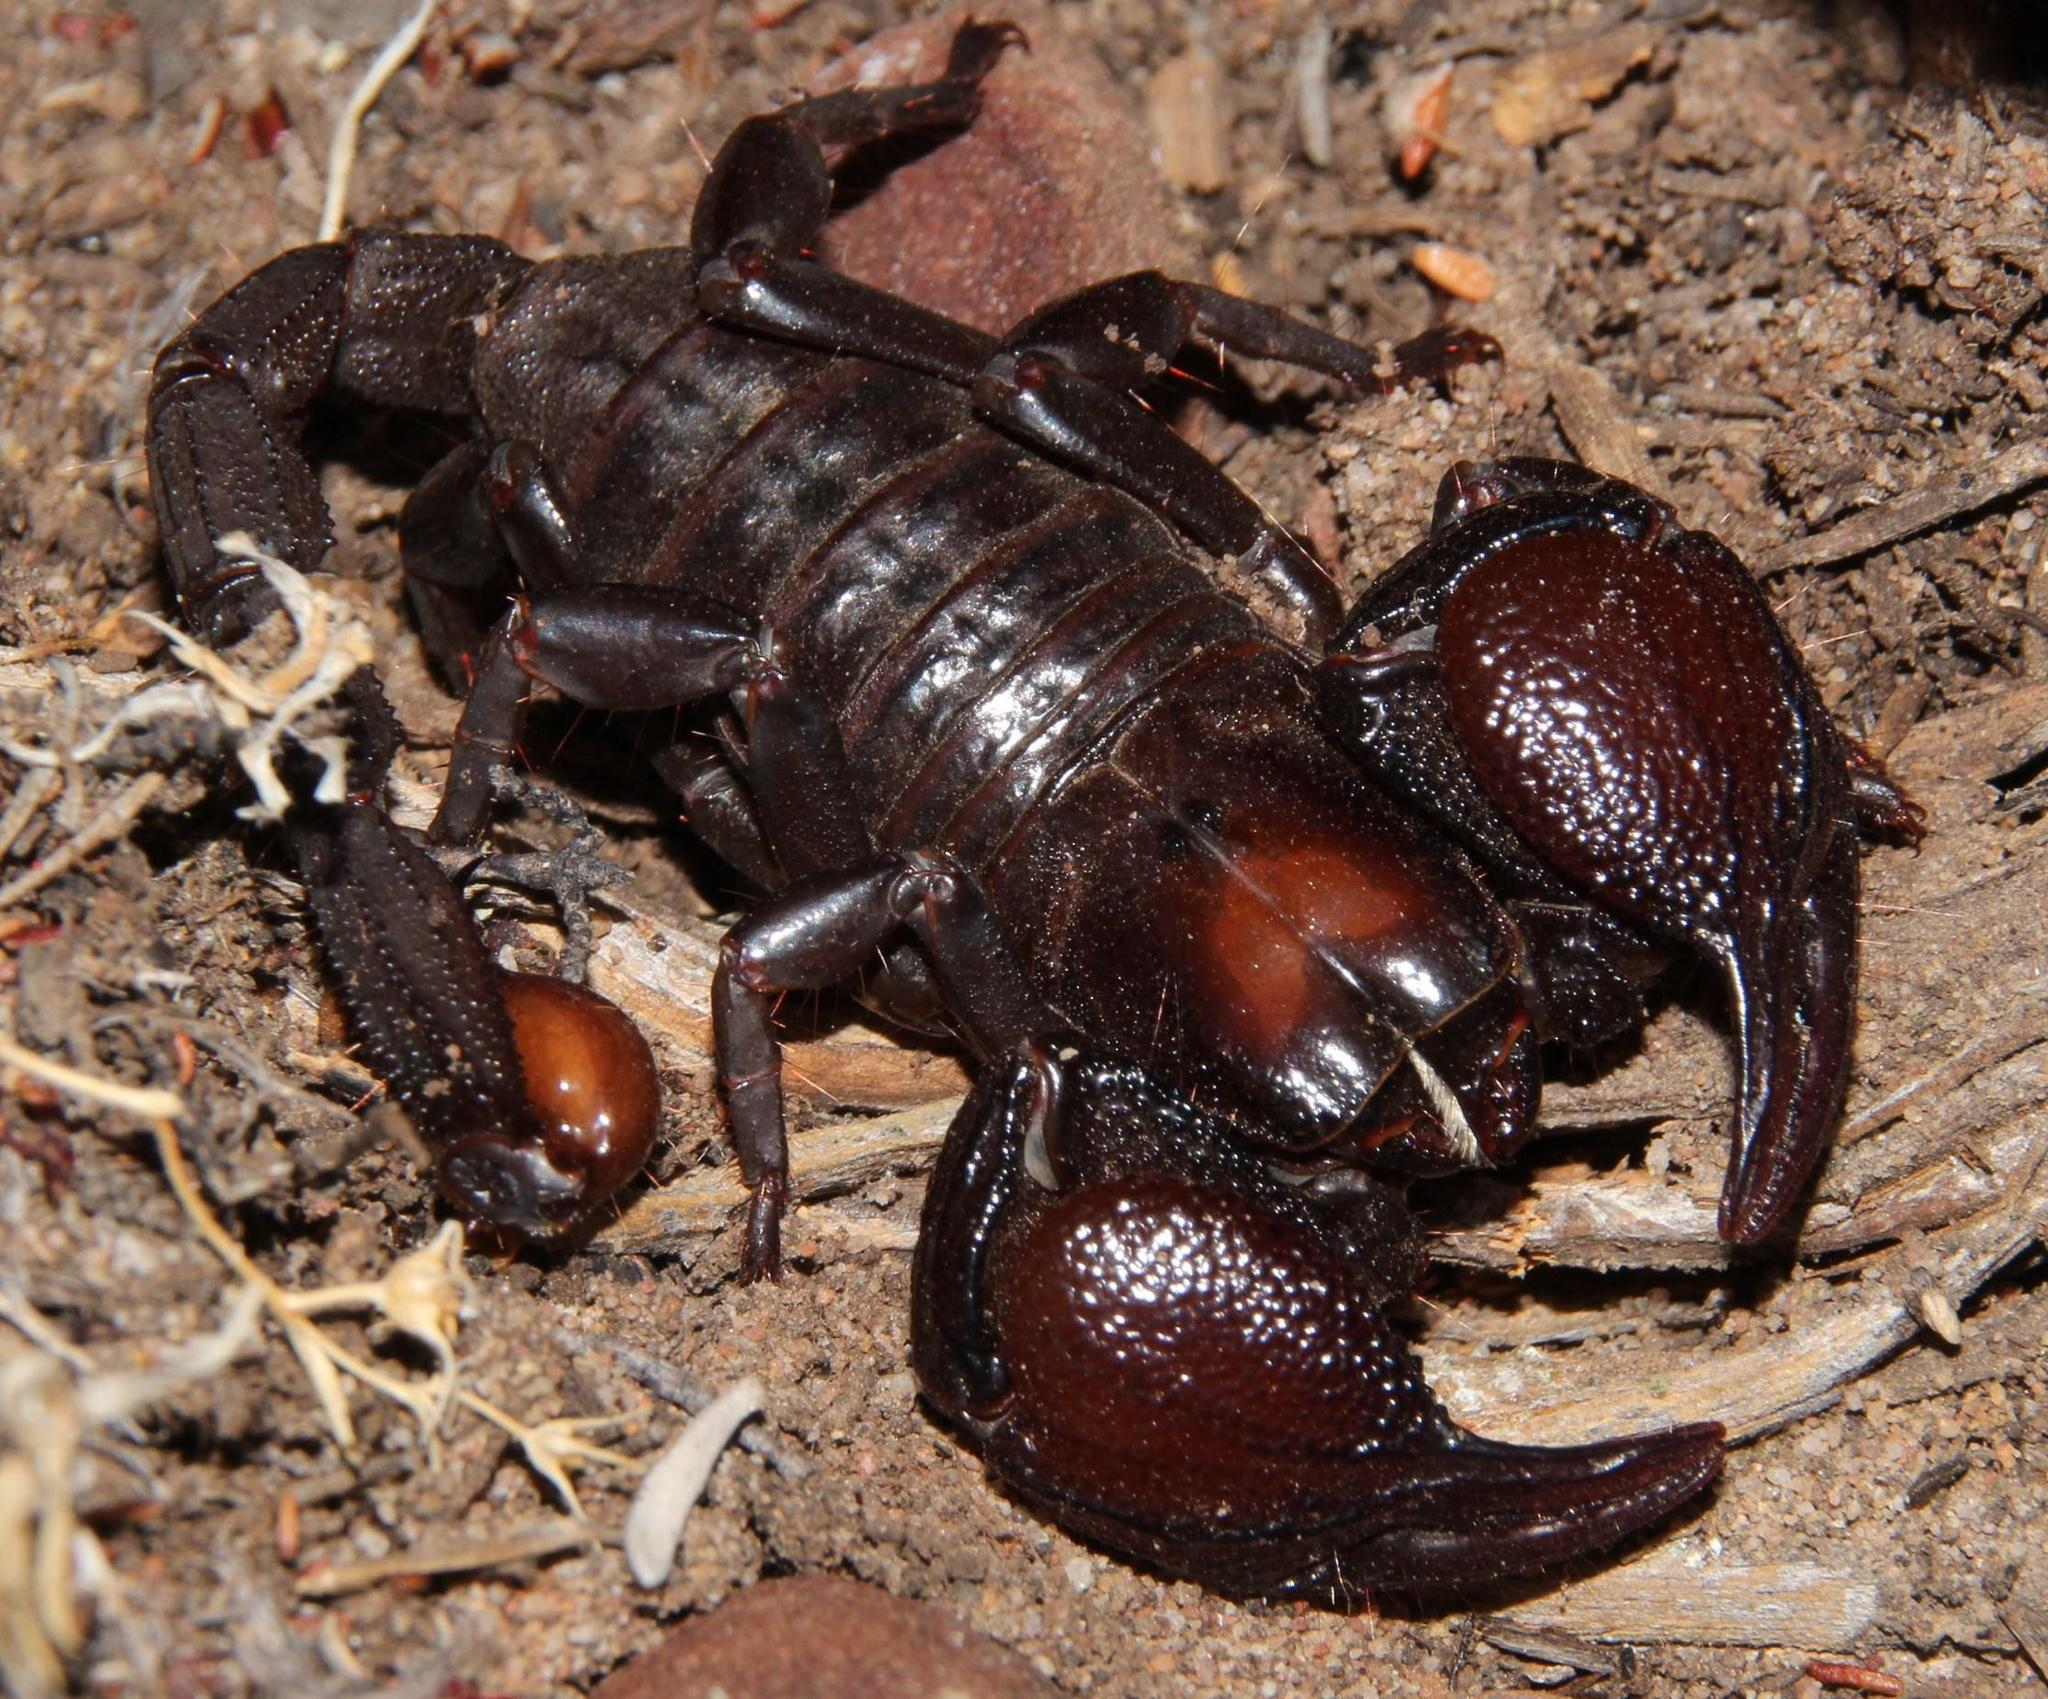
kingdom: Animalia
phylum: Arthropoda
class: Arachnida
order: Scorpiones
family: Scorpionidae
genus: Opistophthalmus
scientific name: Opistophthalmus pattisoni
